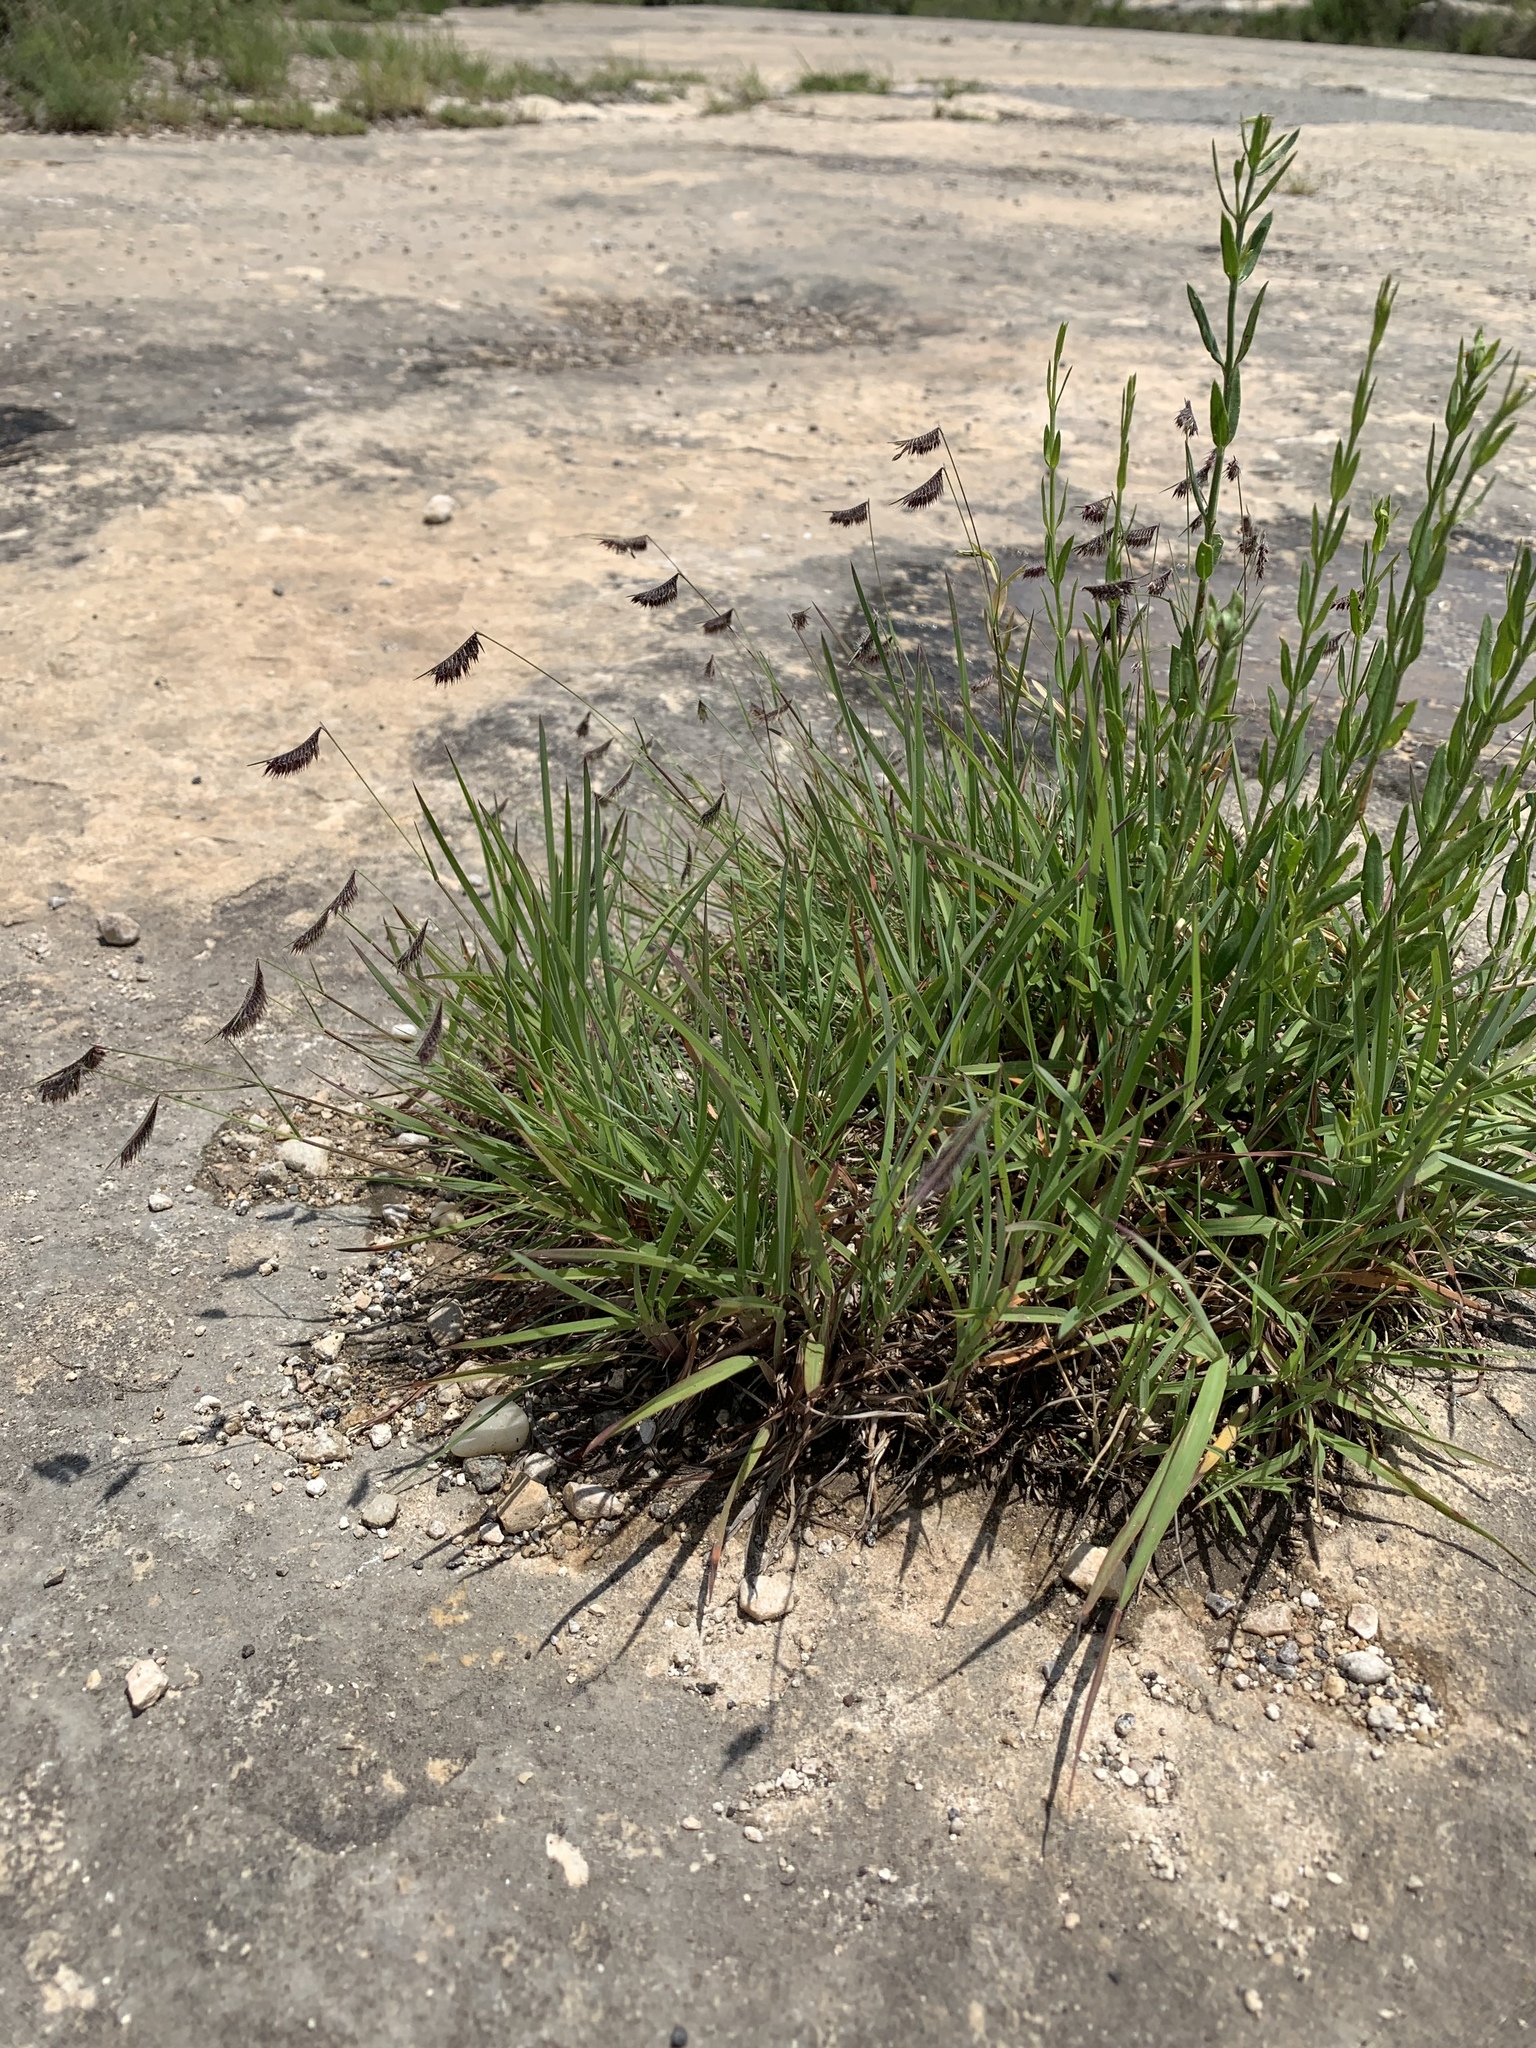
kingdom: Plantae
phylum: Tracheophyta
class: Liliopsida
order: Poales
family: Poaceae
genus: Bouteloua
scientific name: Bouteloua hirsuta
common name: Hairy grama
